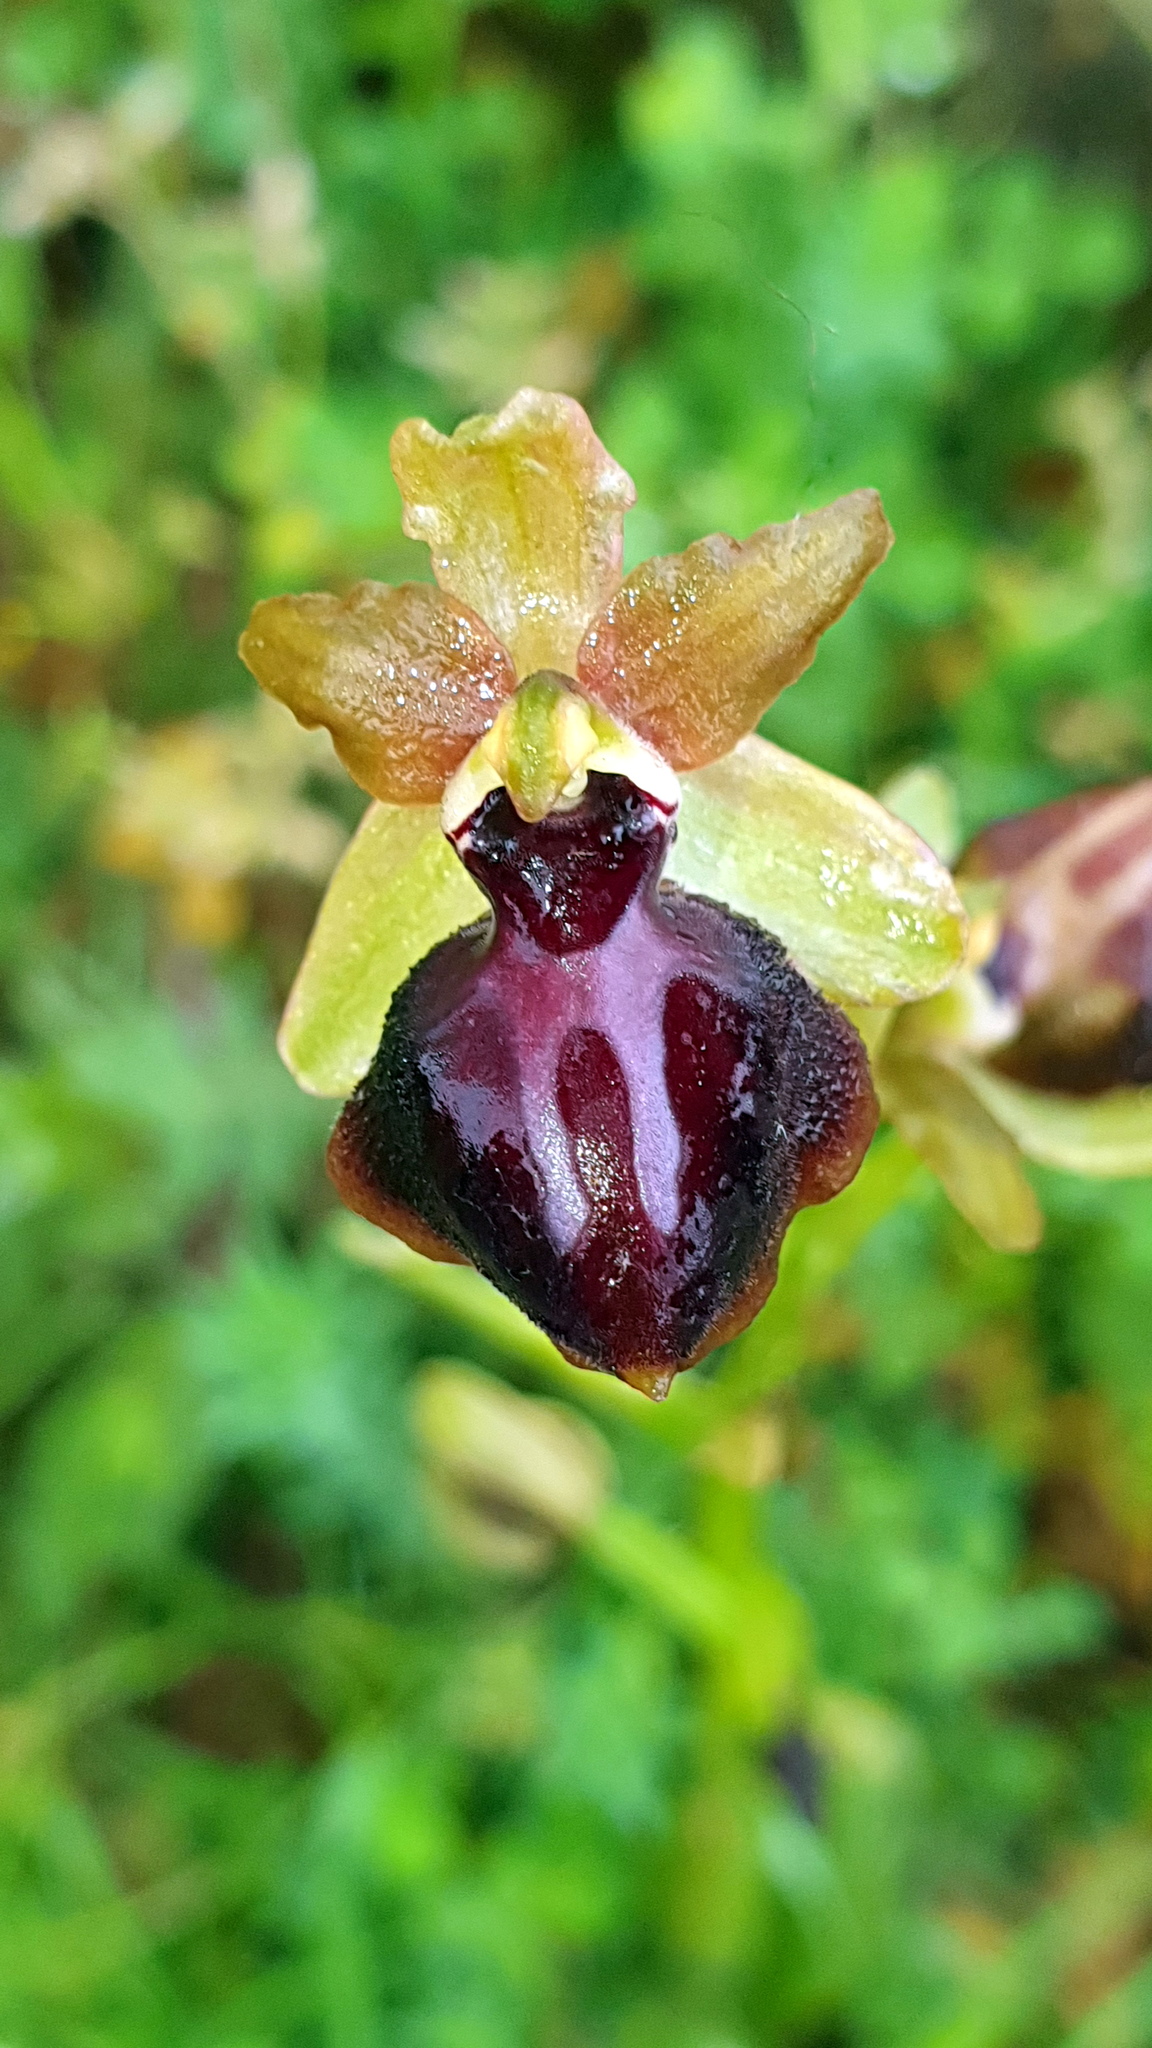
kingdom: Plantae
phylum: Tracheophyta
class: Liliopsida
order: Asparagales
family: Orchidaceae
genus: Ophrys
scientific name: Ophrys sphegodes
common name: Early spider-orchid
